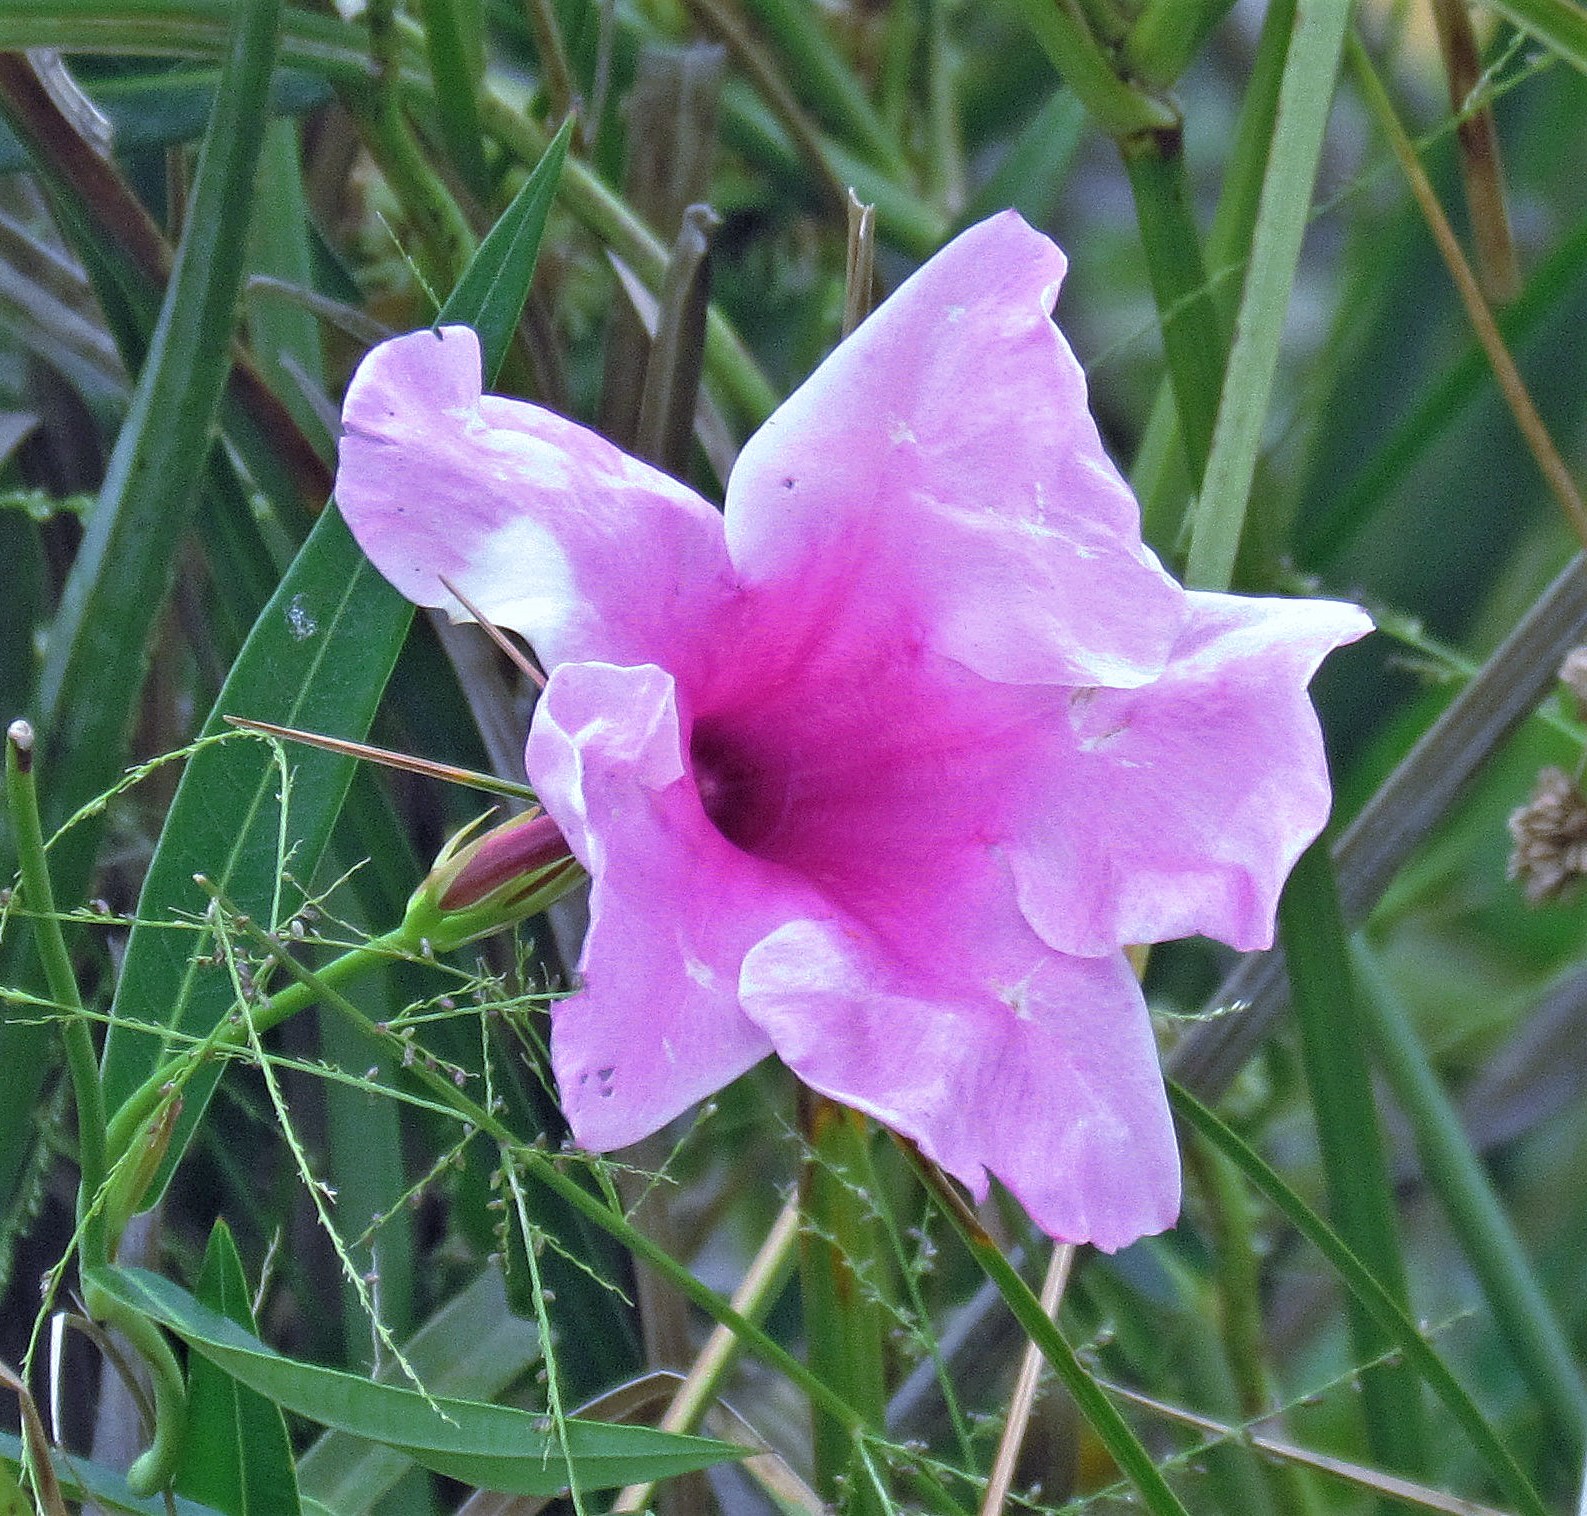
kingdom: Plantae
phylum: Tracheophyta
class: Magnoliopsida
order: Gentianales
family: Apocynaceae
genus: Rhabdadenia
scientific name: Rhabdadenia ragonesei
